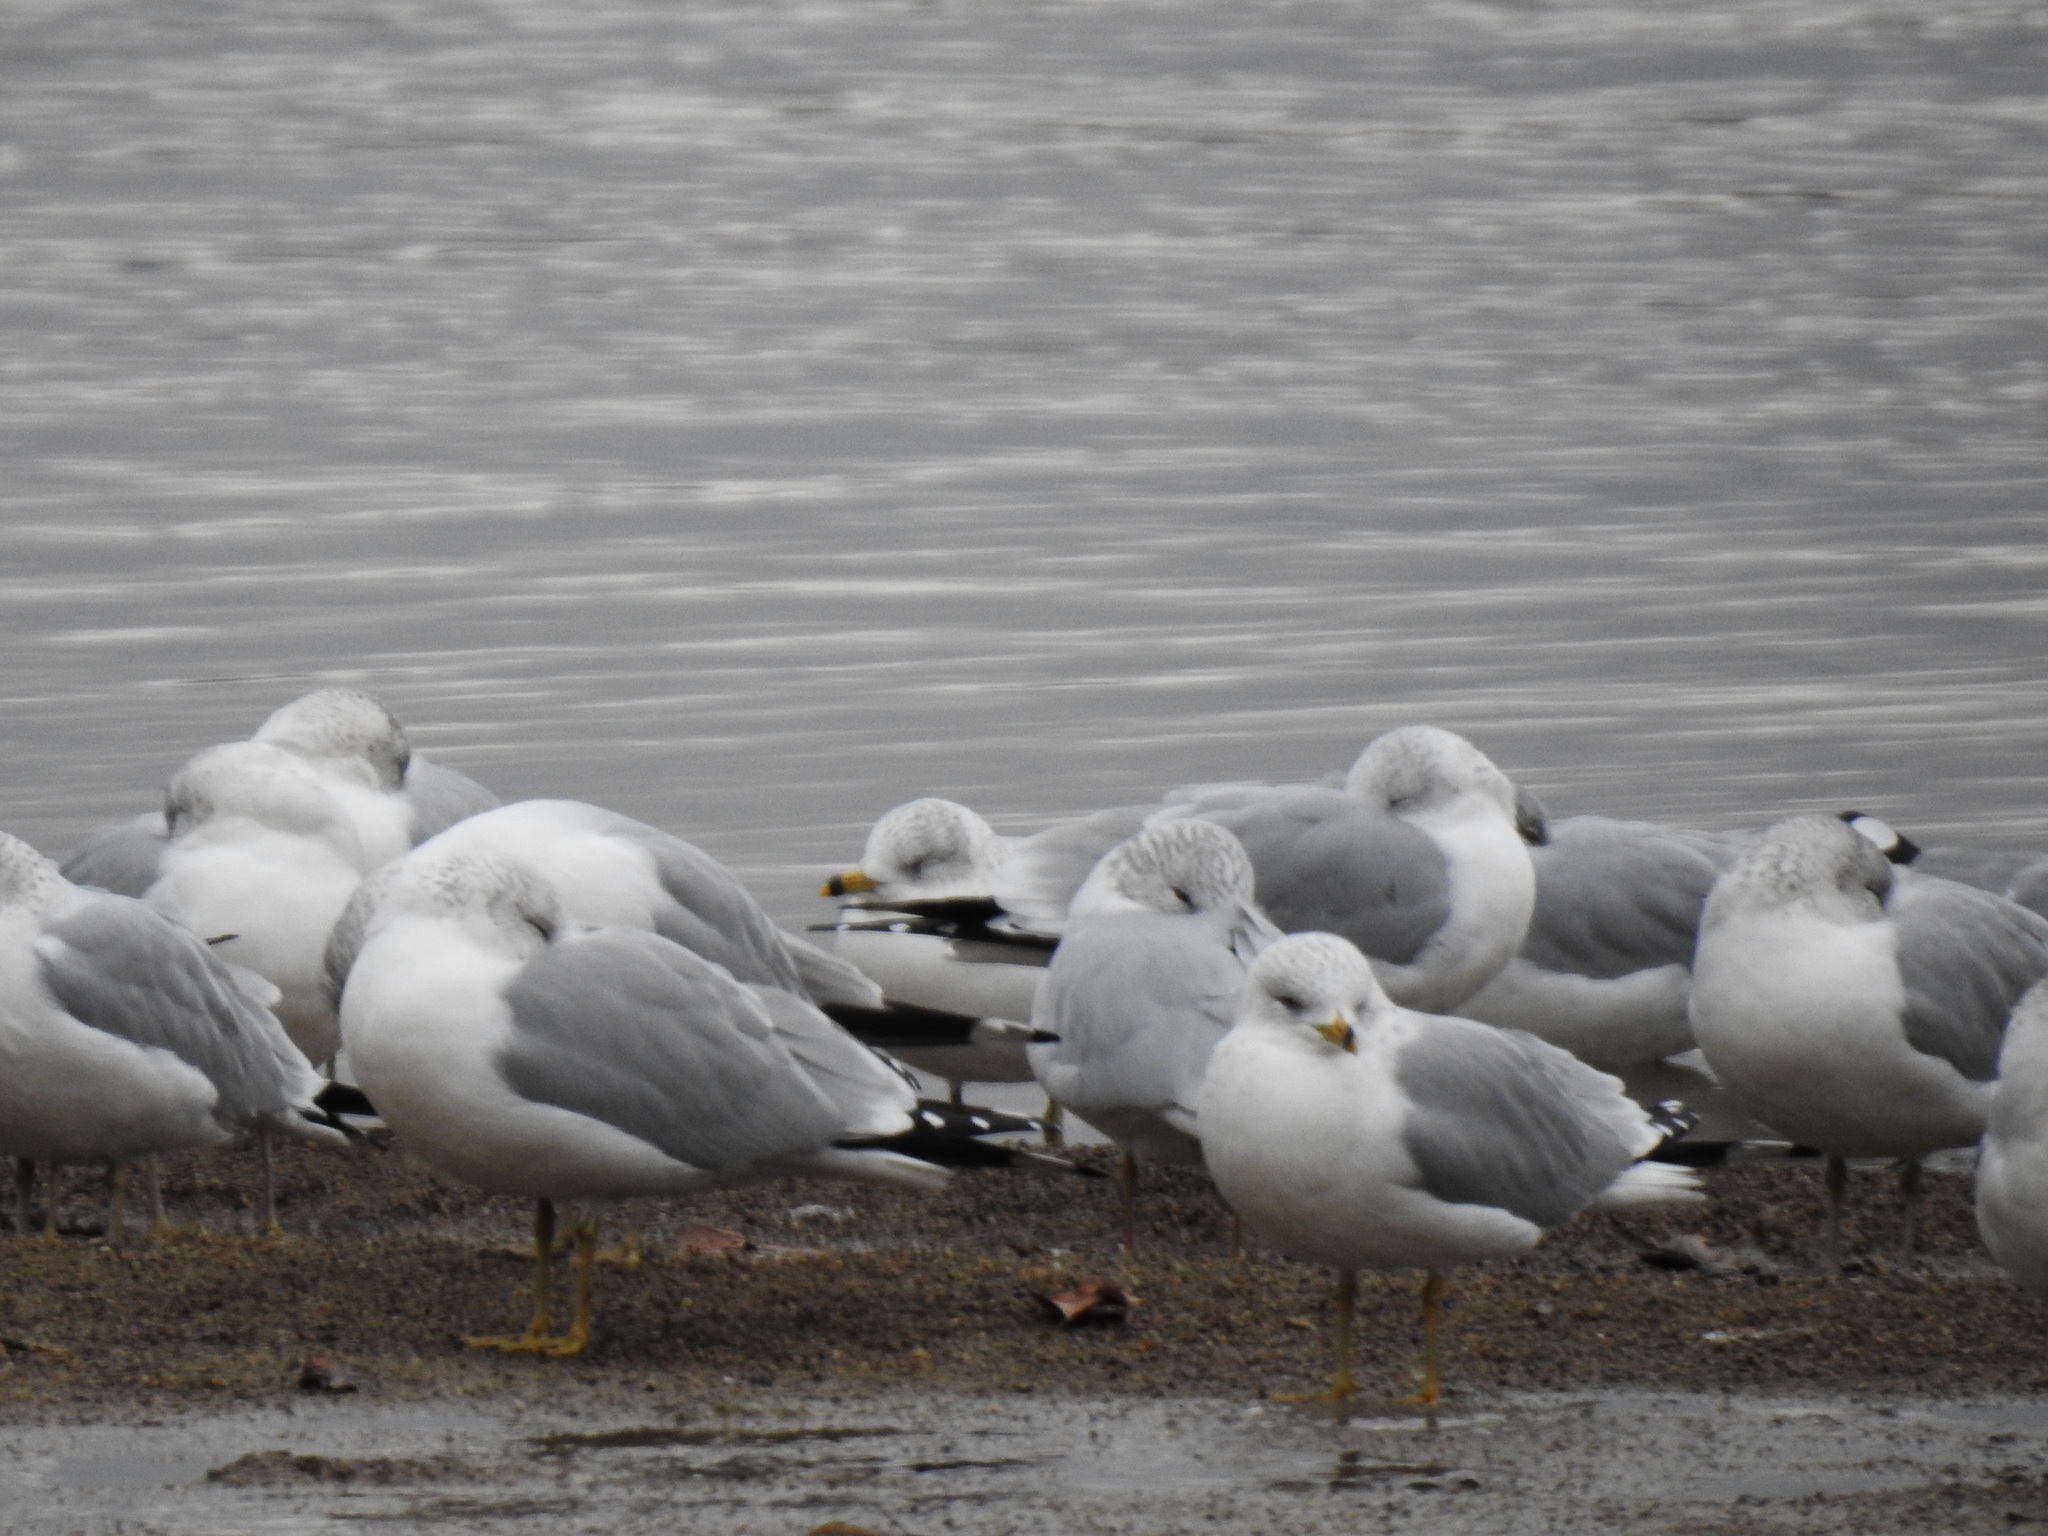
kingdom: Animalia
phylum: Chordata
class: Aves
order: Charadriiformes
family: Laridae
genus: Larus
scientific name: Larus delawarensis
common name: Ring-billed gull
